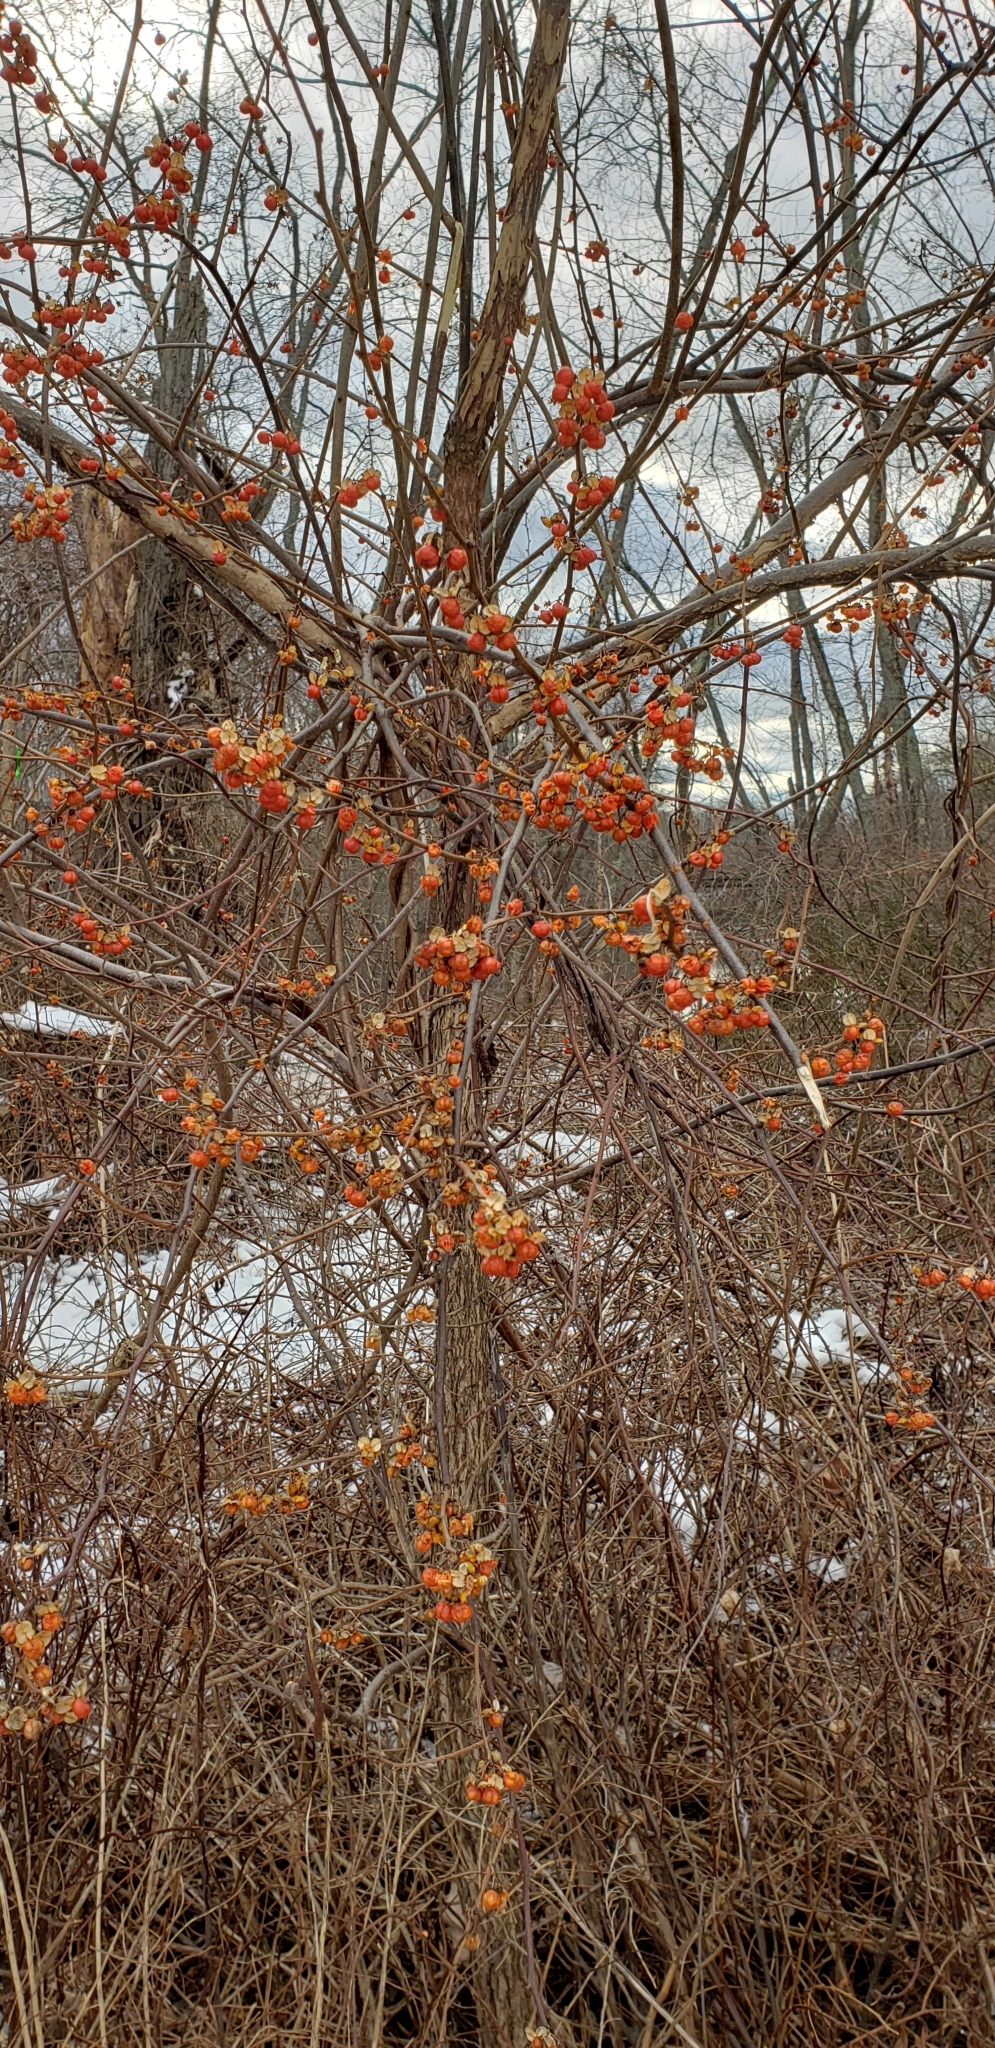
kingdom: Plantae
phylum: Tracheophyta
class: Magnoliopsida
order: Celastrales
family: Celastraceae
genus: Celastrus
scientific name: Celastrus orbiculatus
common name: Oriental bittersweet
